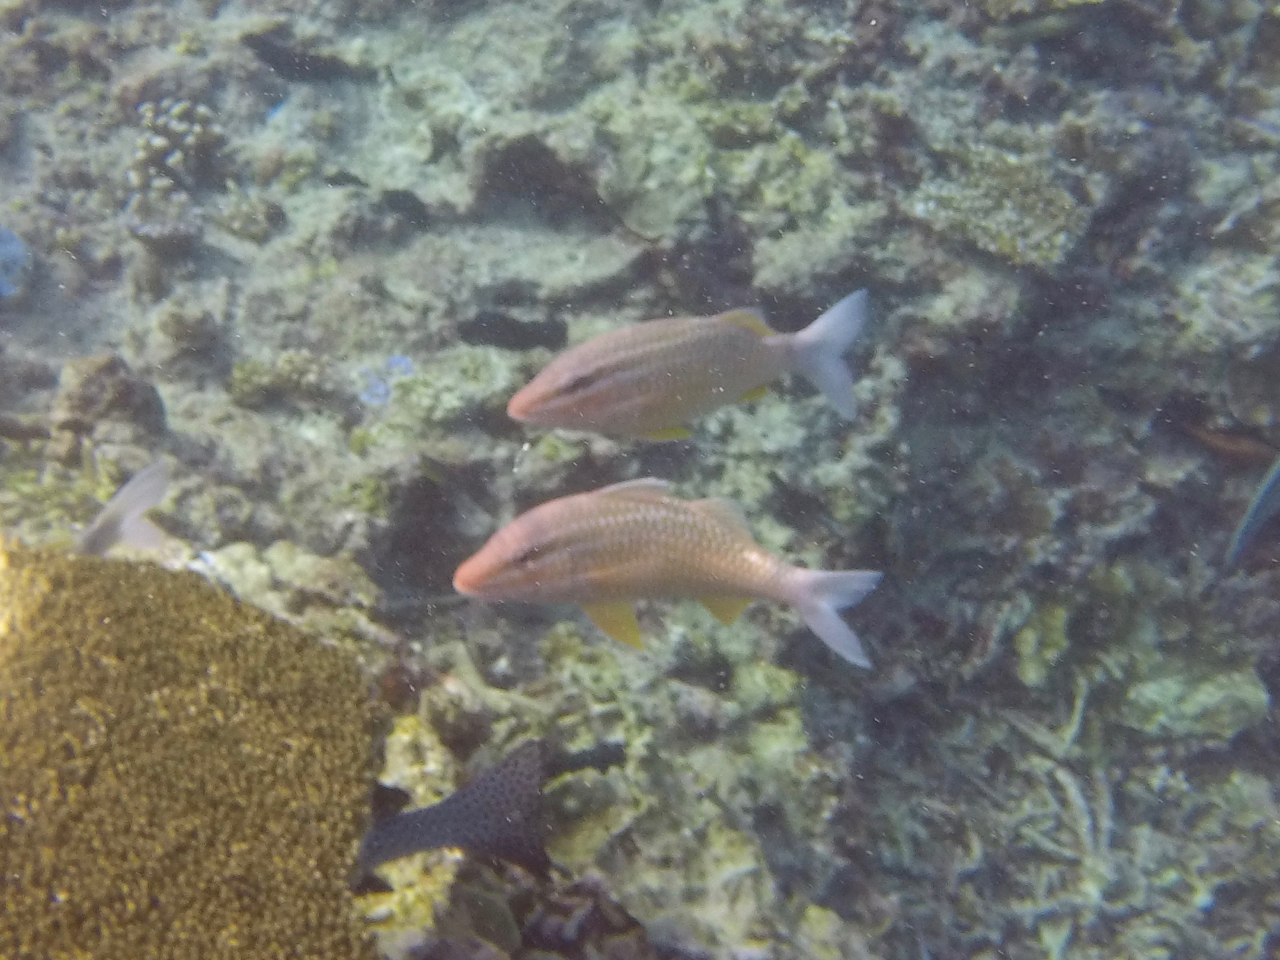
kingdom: Animalia
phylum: Chordata
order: Perciformes
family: Mullidae
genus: Parupeneus
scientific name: Parupeneus ciliatus
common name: White-lined goatfish
